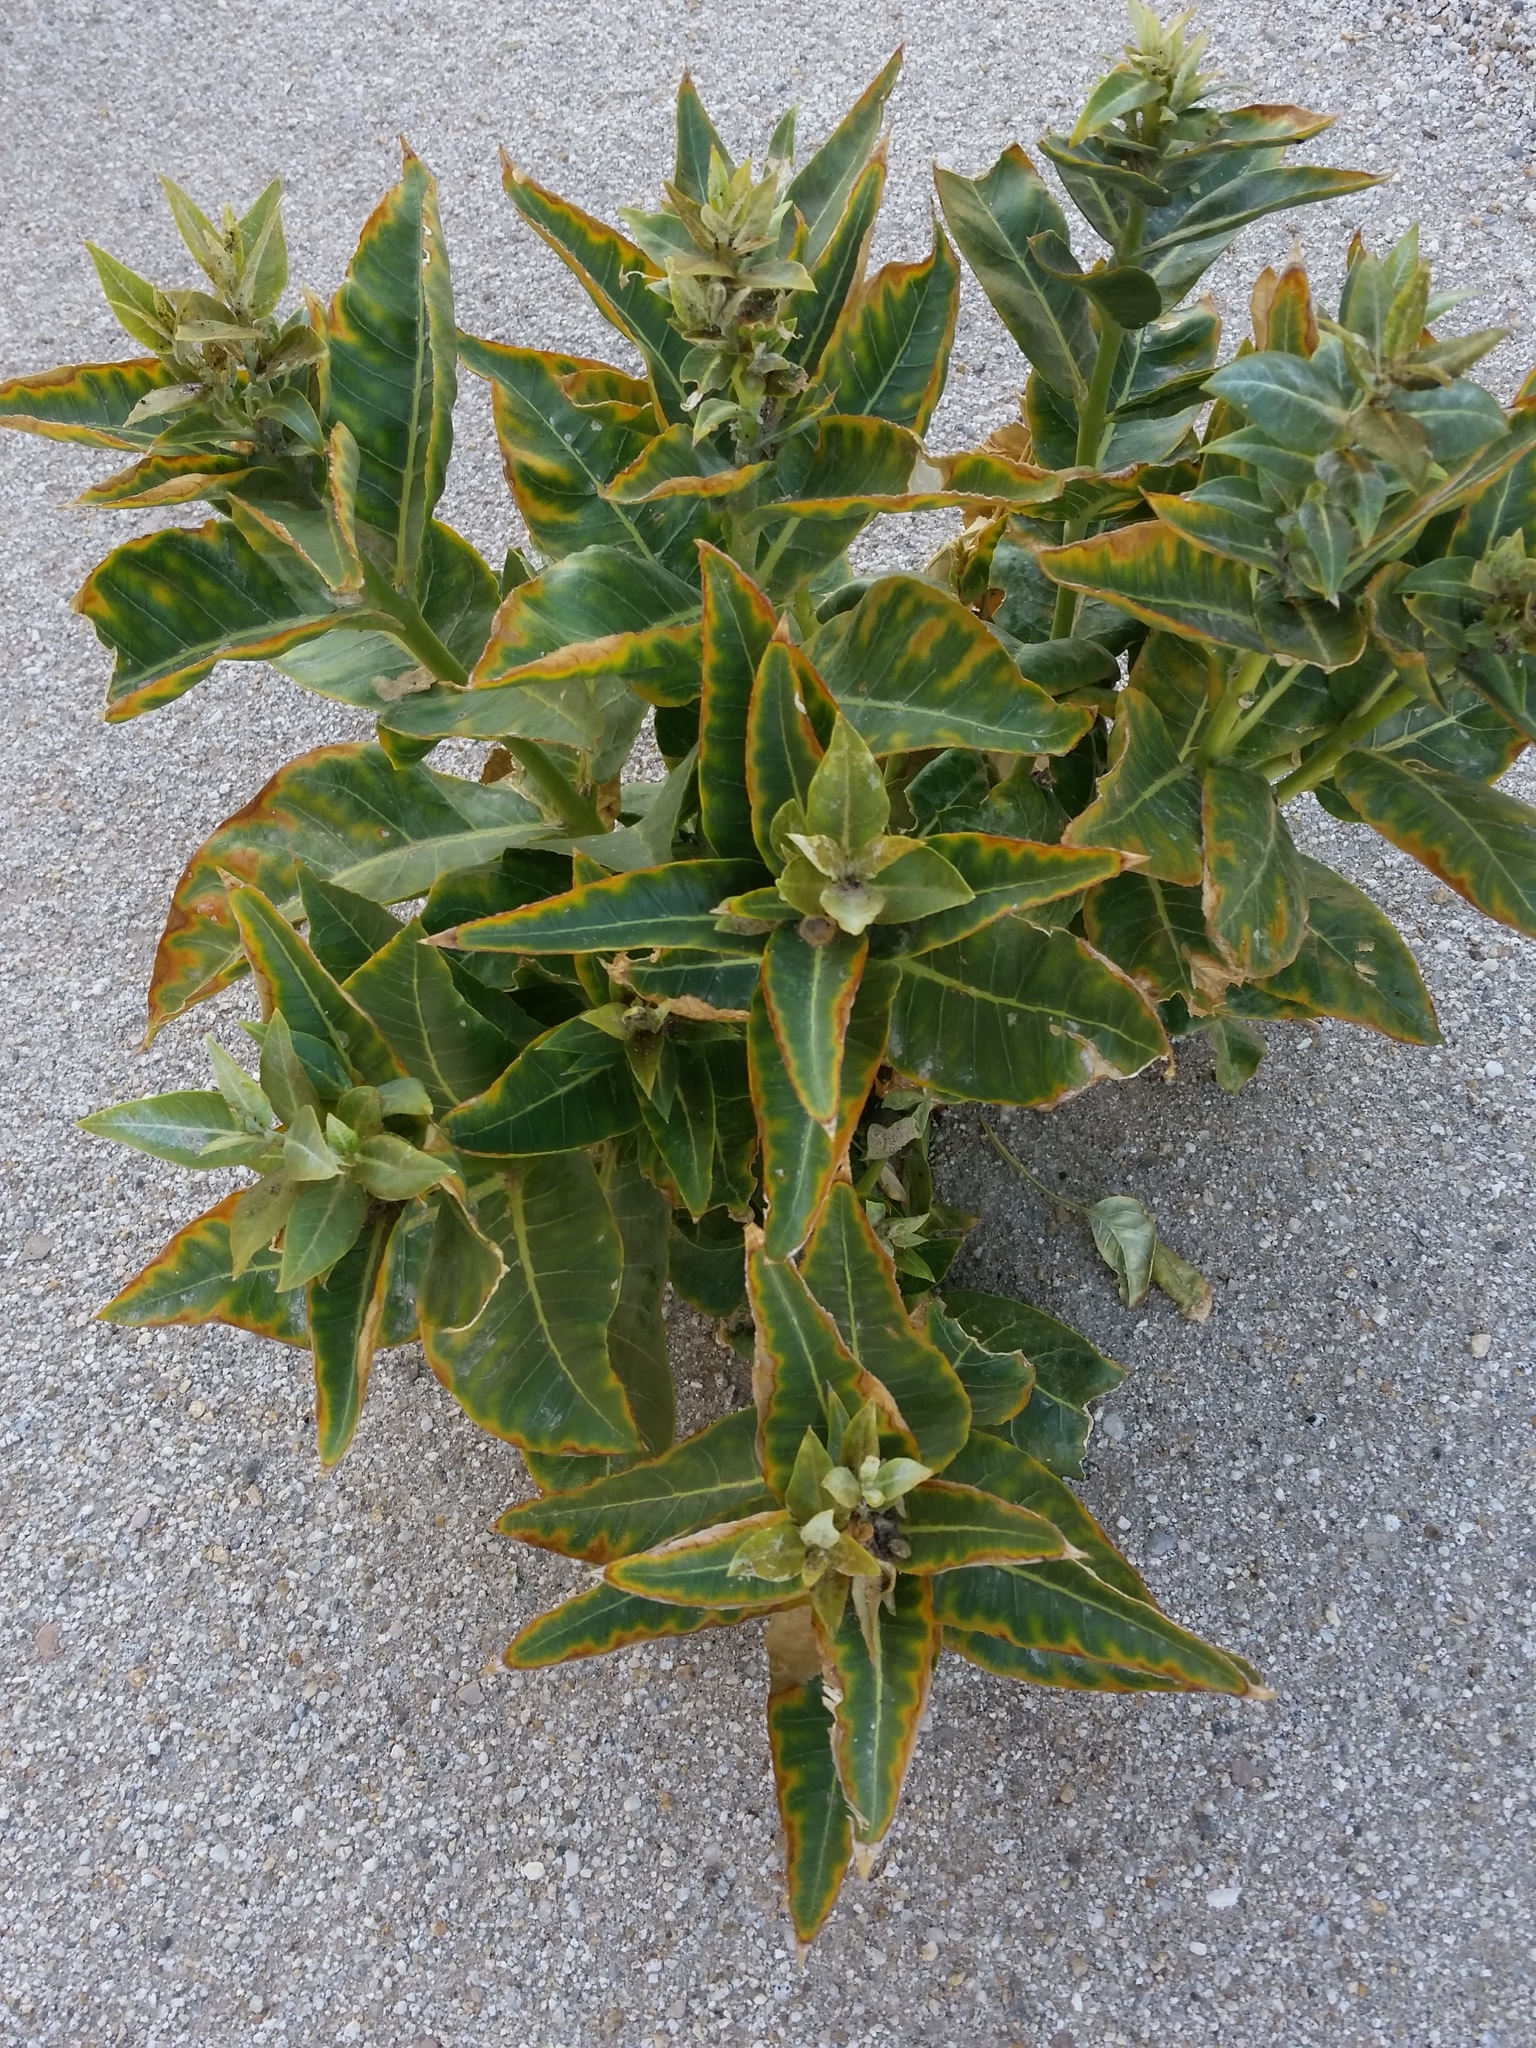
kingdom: Plantae
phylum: Tracheophyta
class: Magnoliopsida
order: Gentianales
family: Apocynaceae
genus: Asclepias
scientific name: Asclepias erosa
